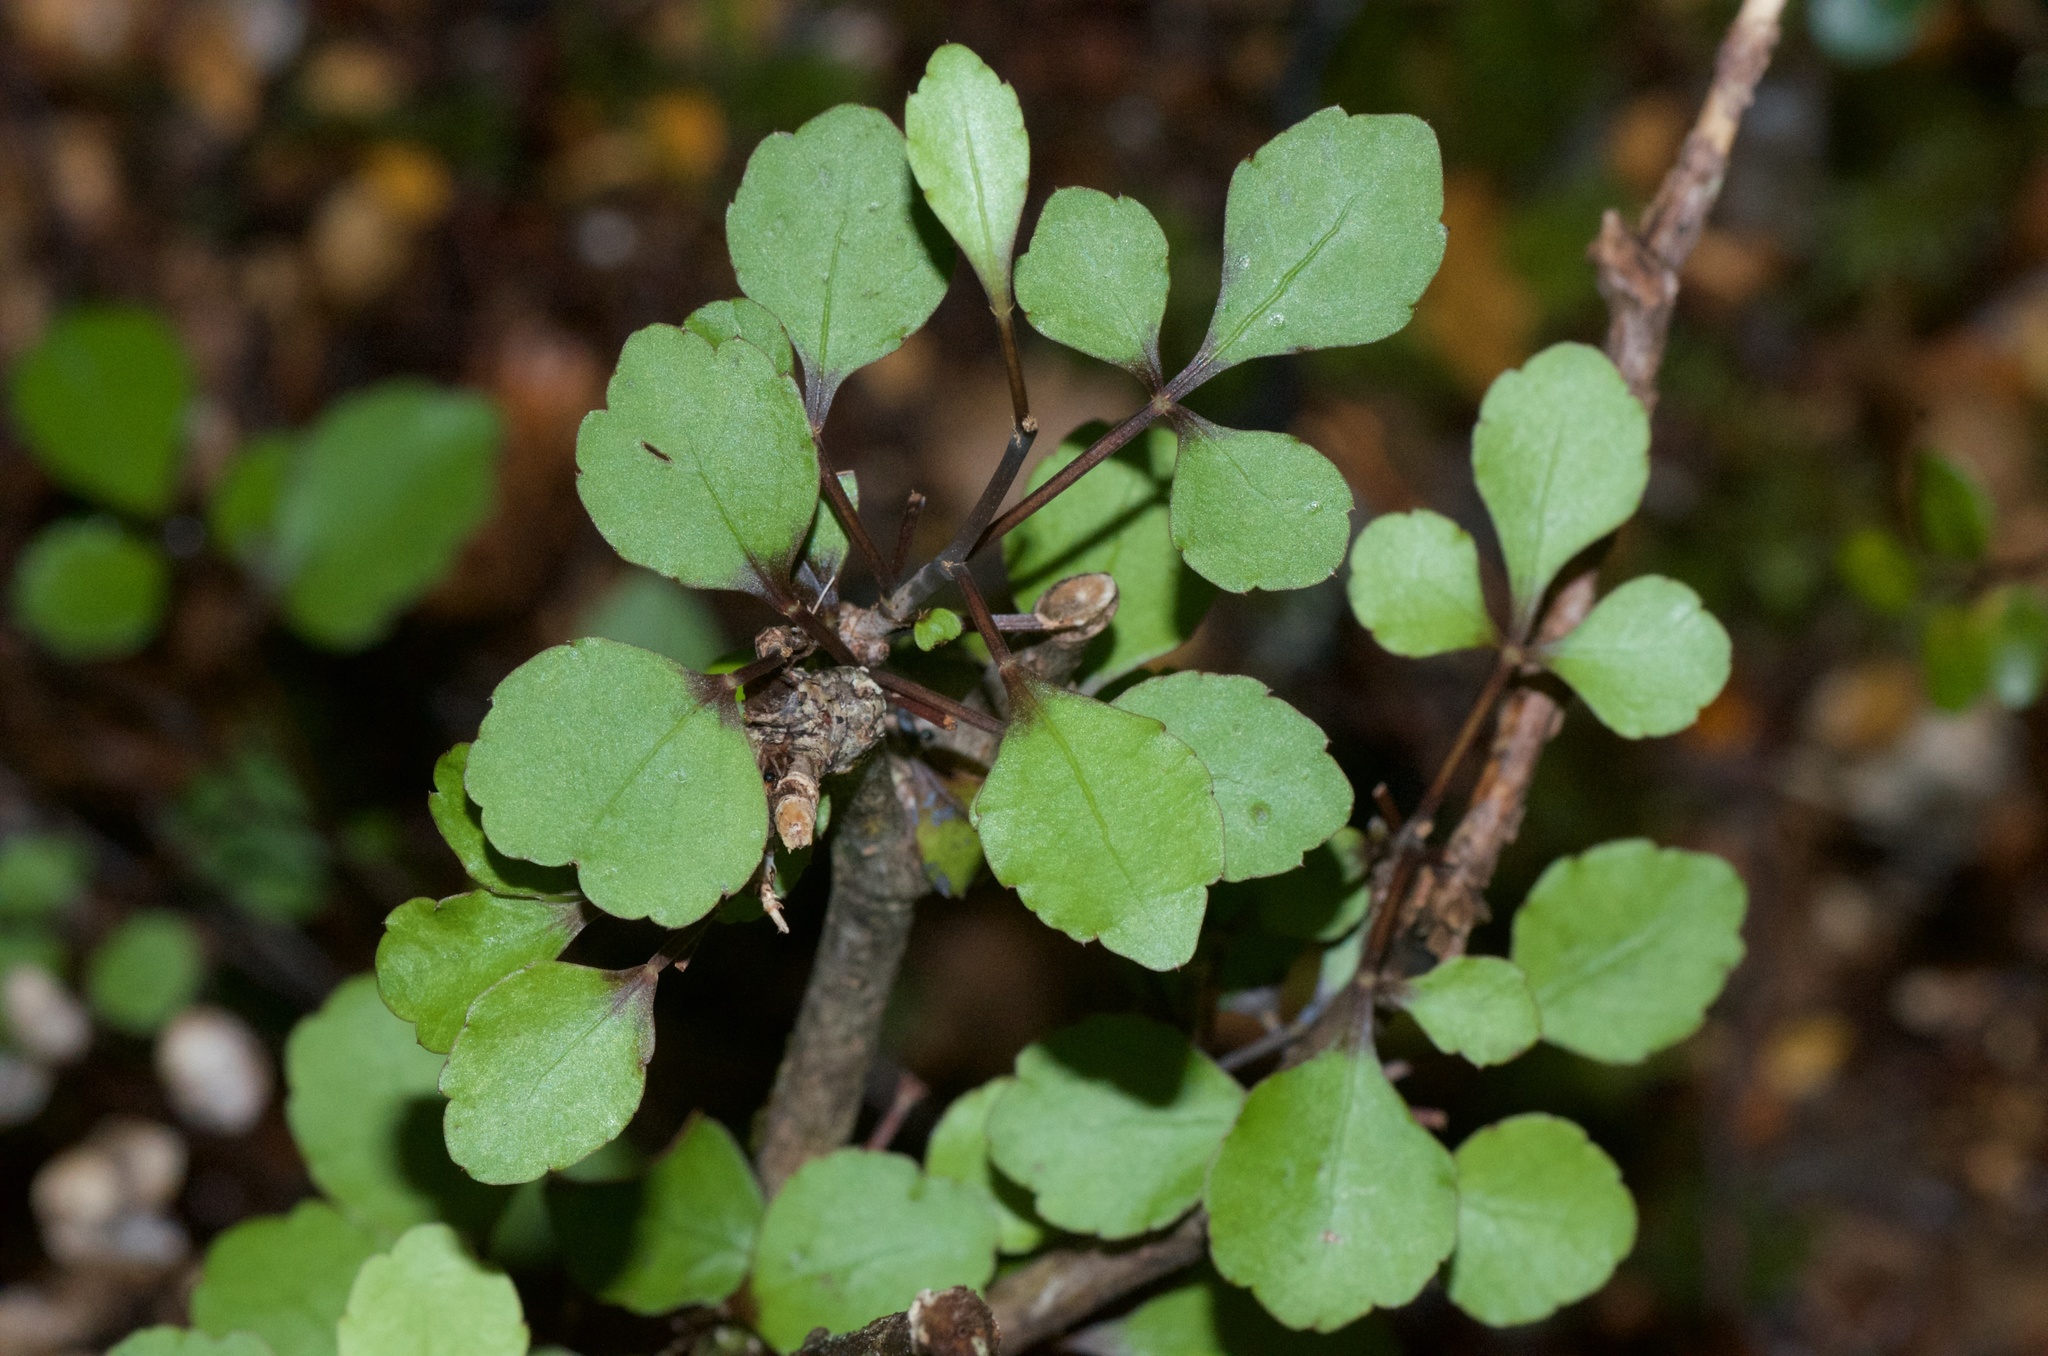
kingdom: Plantae
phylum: Tracheophyta
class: Magnoliopsida
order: Apiales
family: Araliaceae
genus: Raukaua
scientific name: Raukaua anomalus
